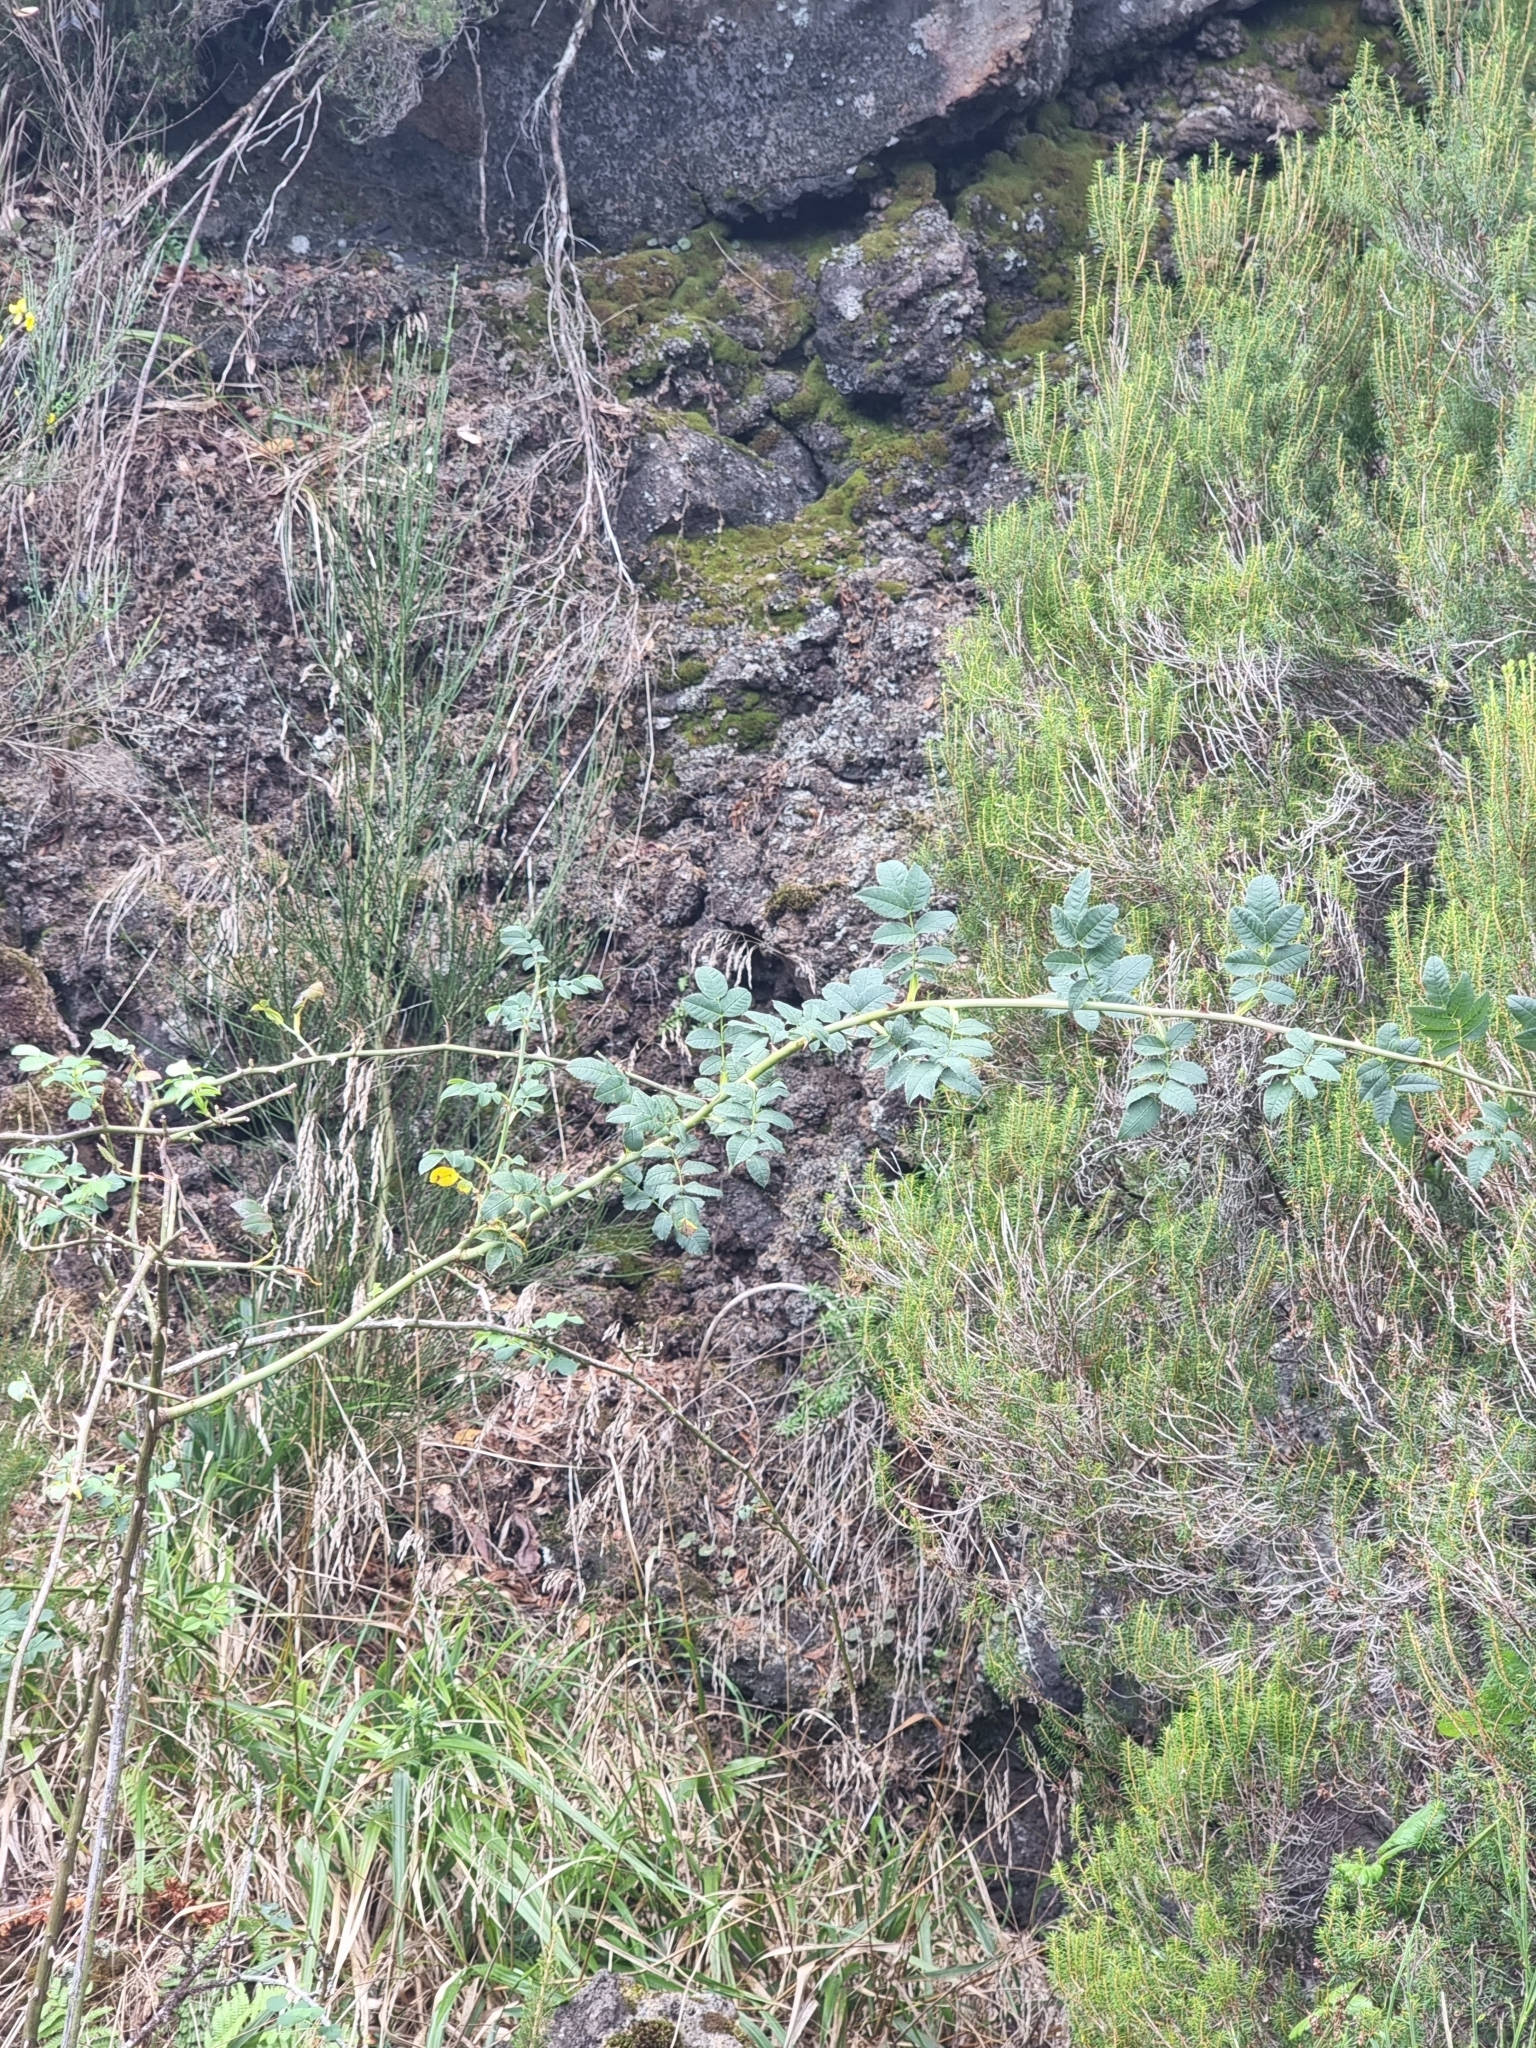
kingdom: Plantae
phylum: Tracheophyta
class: Magnoliopsida
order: Rosales
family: Rosaceae
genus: Rosa
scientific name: Rosa canina
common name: Dog rose
